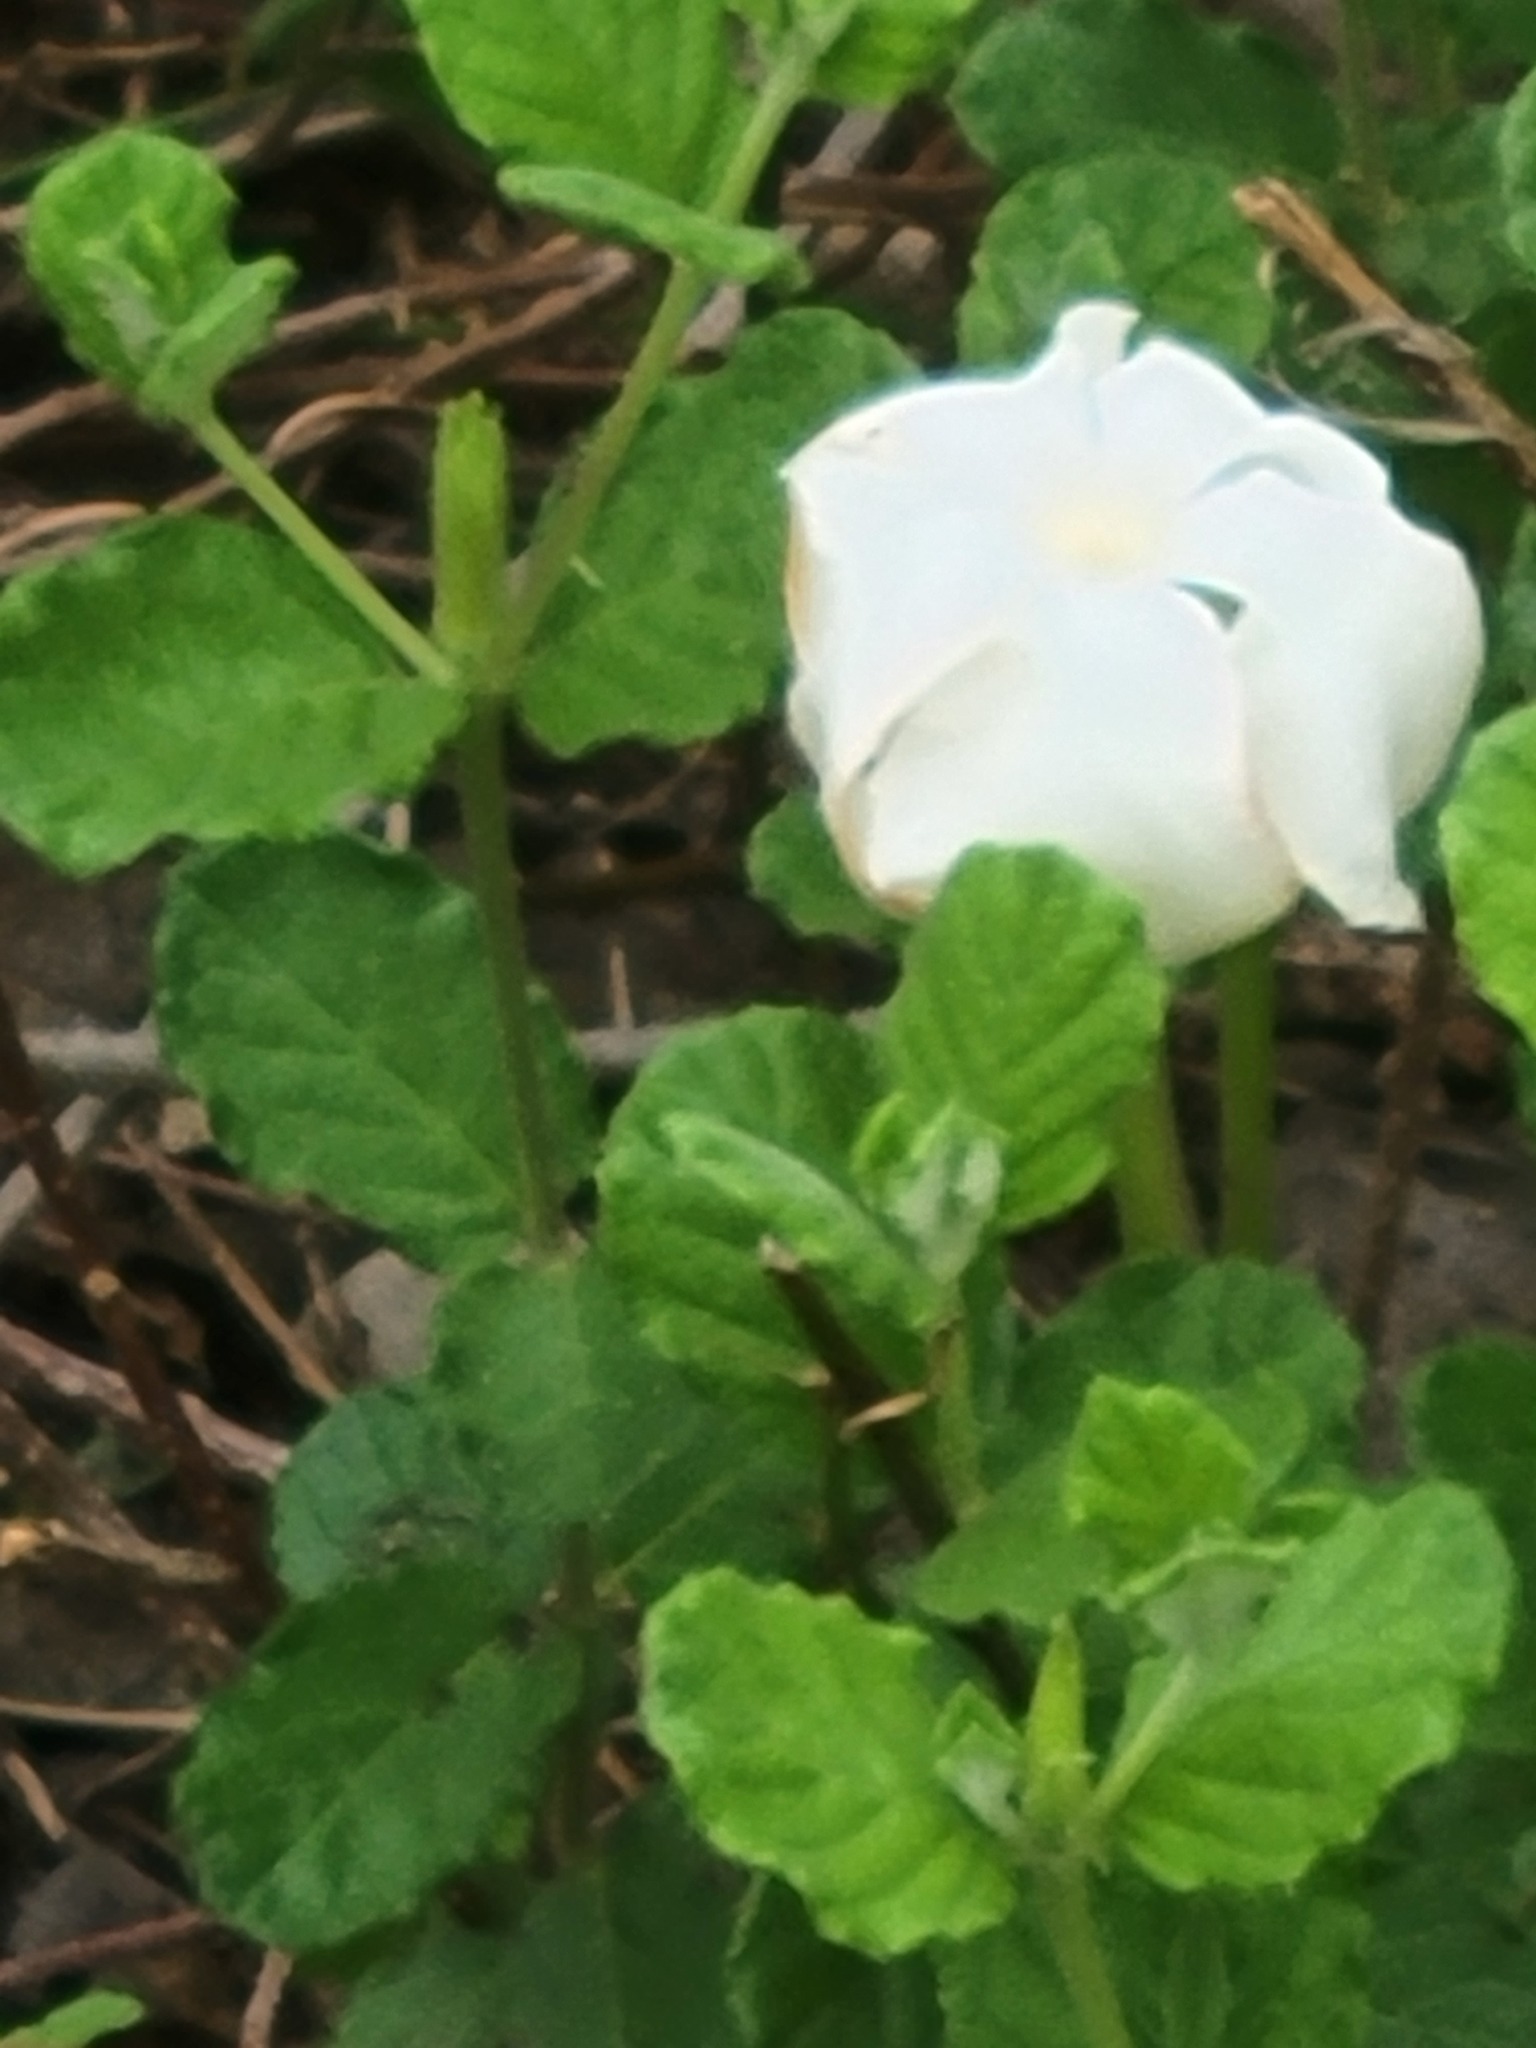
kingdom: Plantae
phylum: Tracheophyta
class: Magnoliopsida
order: Gentianales
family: Apocynaceae
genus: Mandevilla
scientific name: Mandevilla lanuginosa
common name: Plateau rocktrumpet
